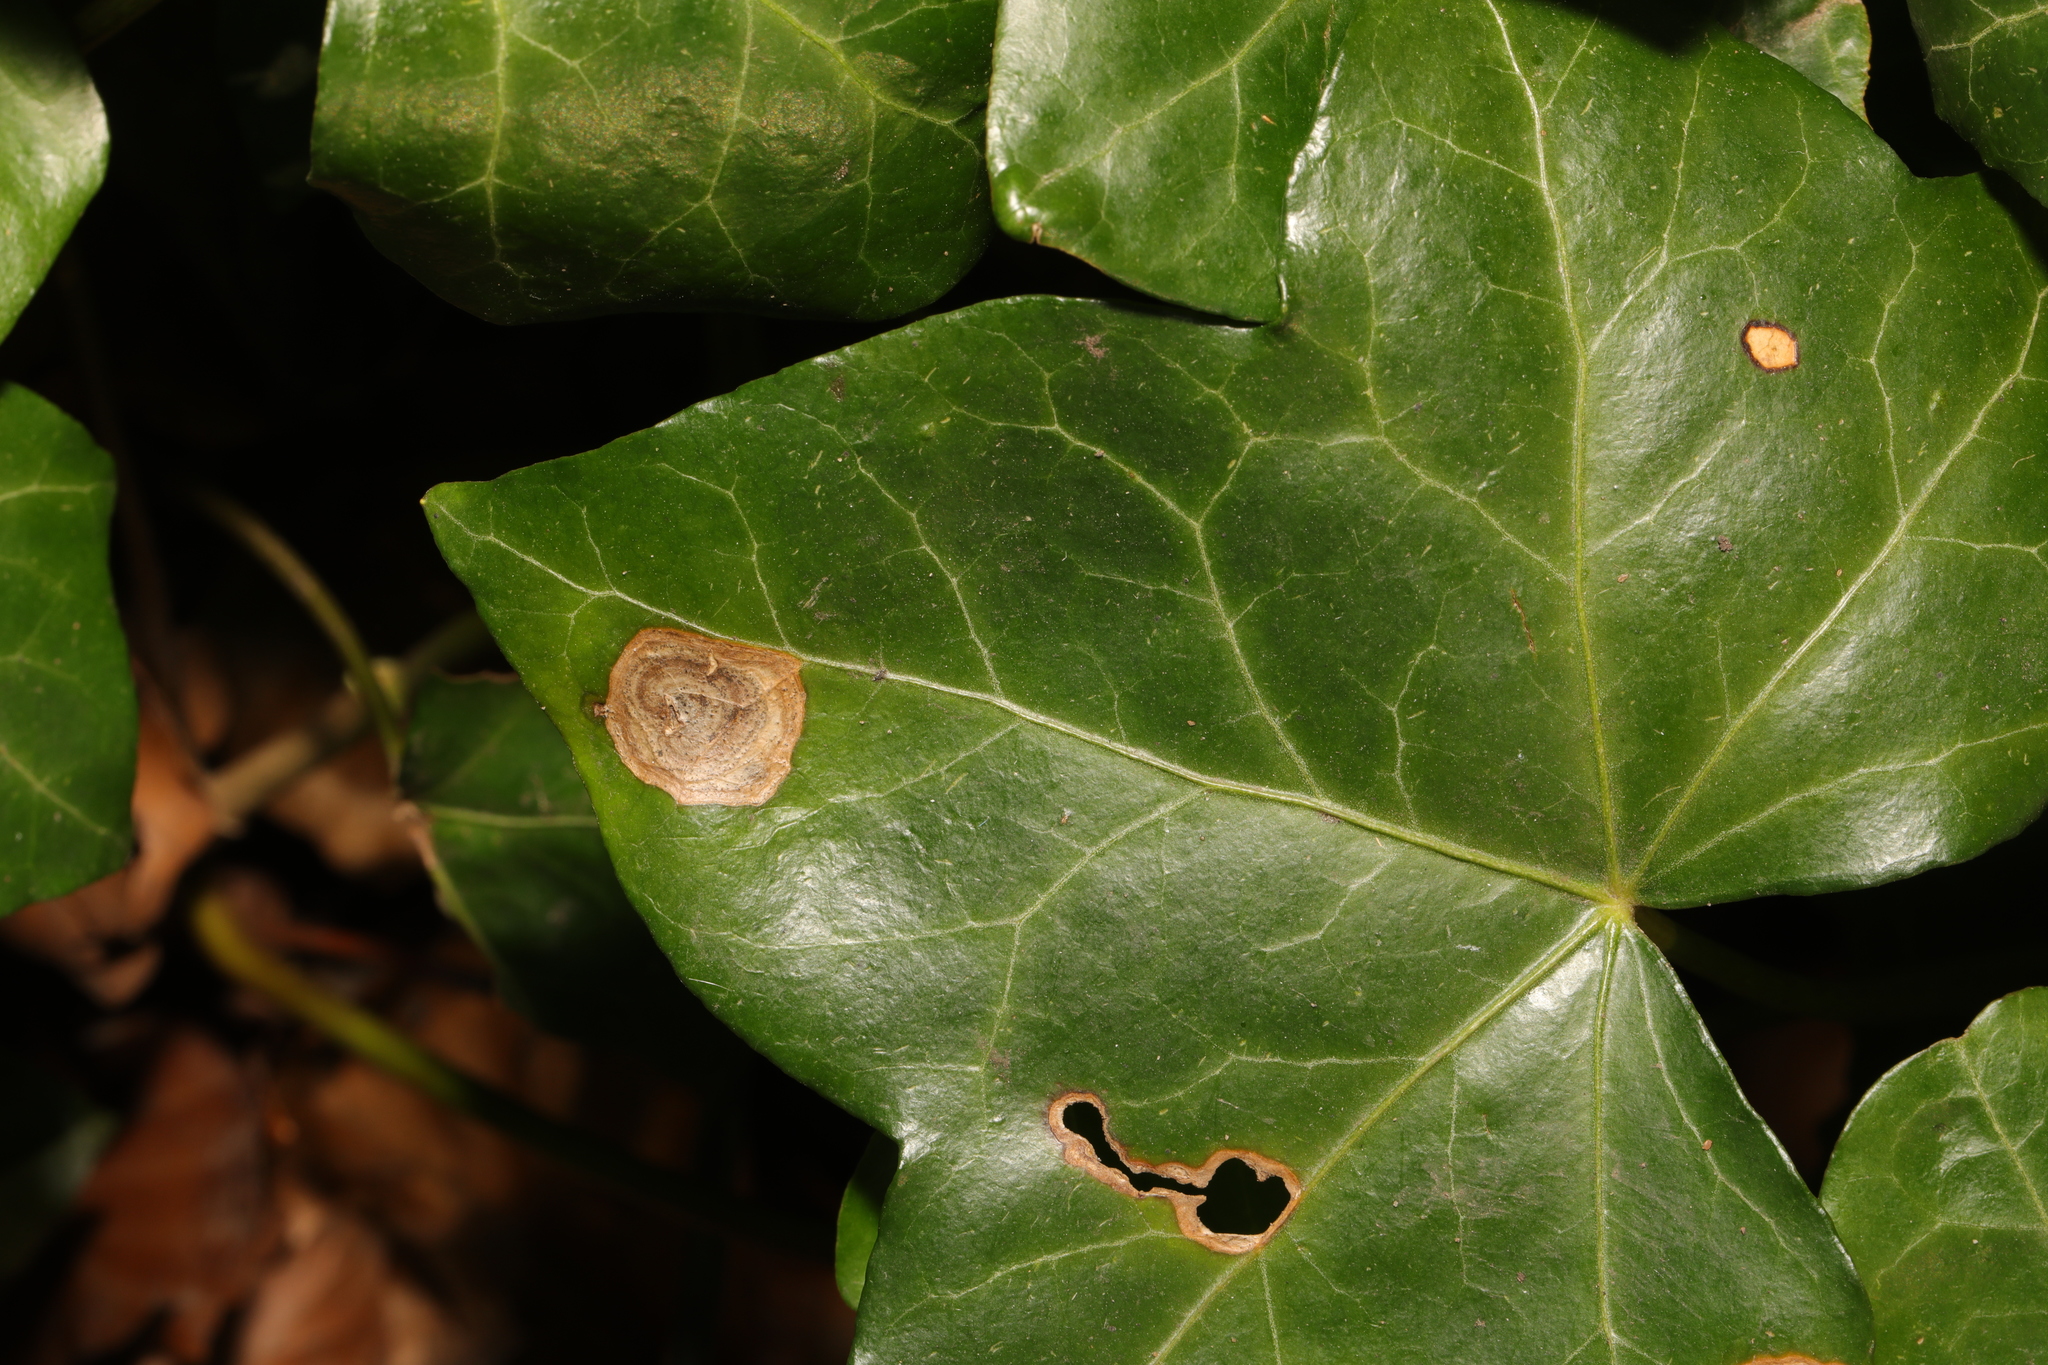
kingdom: Fungi
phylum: Ascomycota
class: Dothideomycetes
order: Pleosporales
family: Didymellaceae
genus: Boeremia
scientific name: Boeremia hedericola
